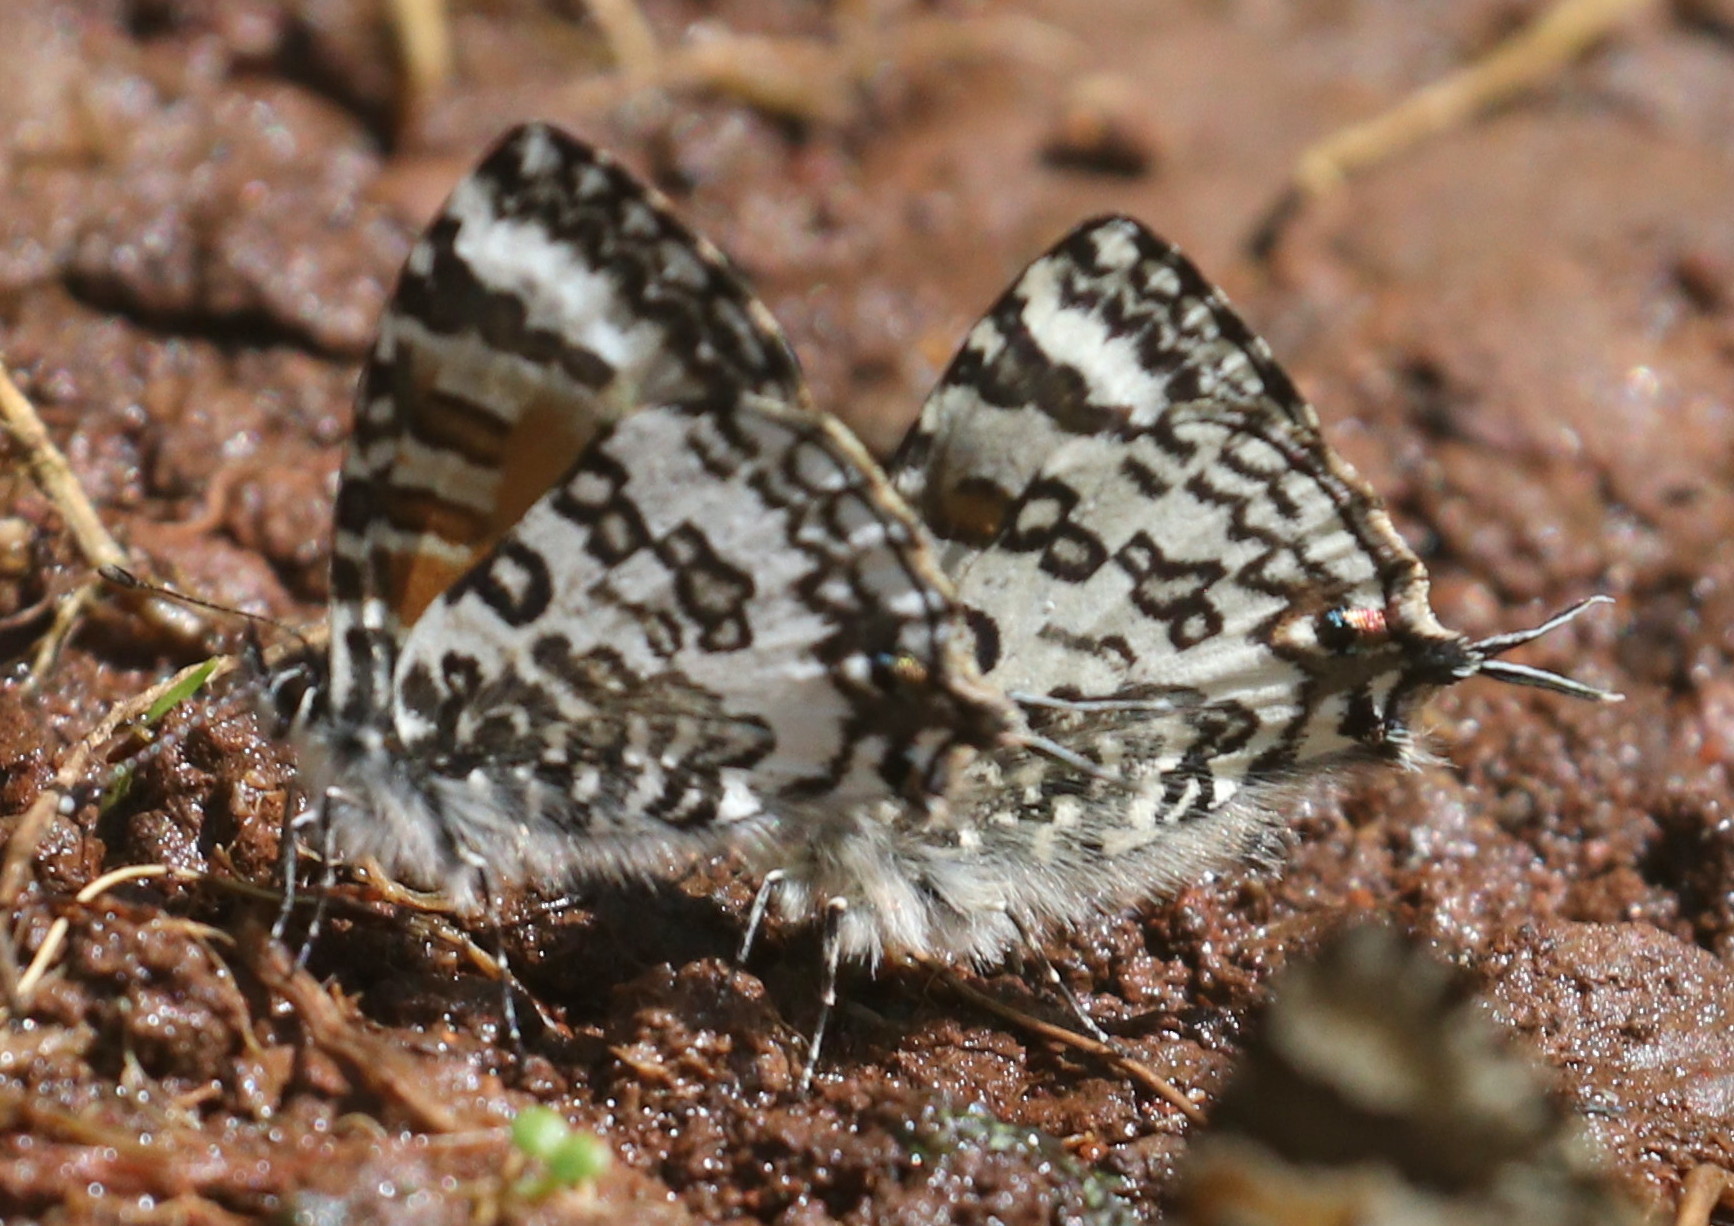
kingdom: Animalia
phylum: Arthropoda
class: Insecta
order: Lepidoptera
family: Lycaenidae
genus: Uranothauma
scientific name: Uranothauma cordatus
